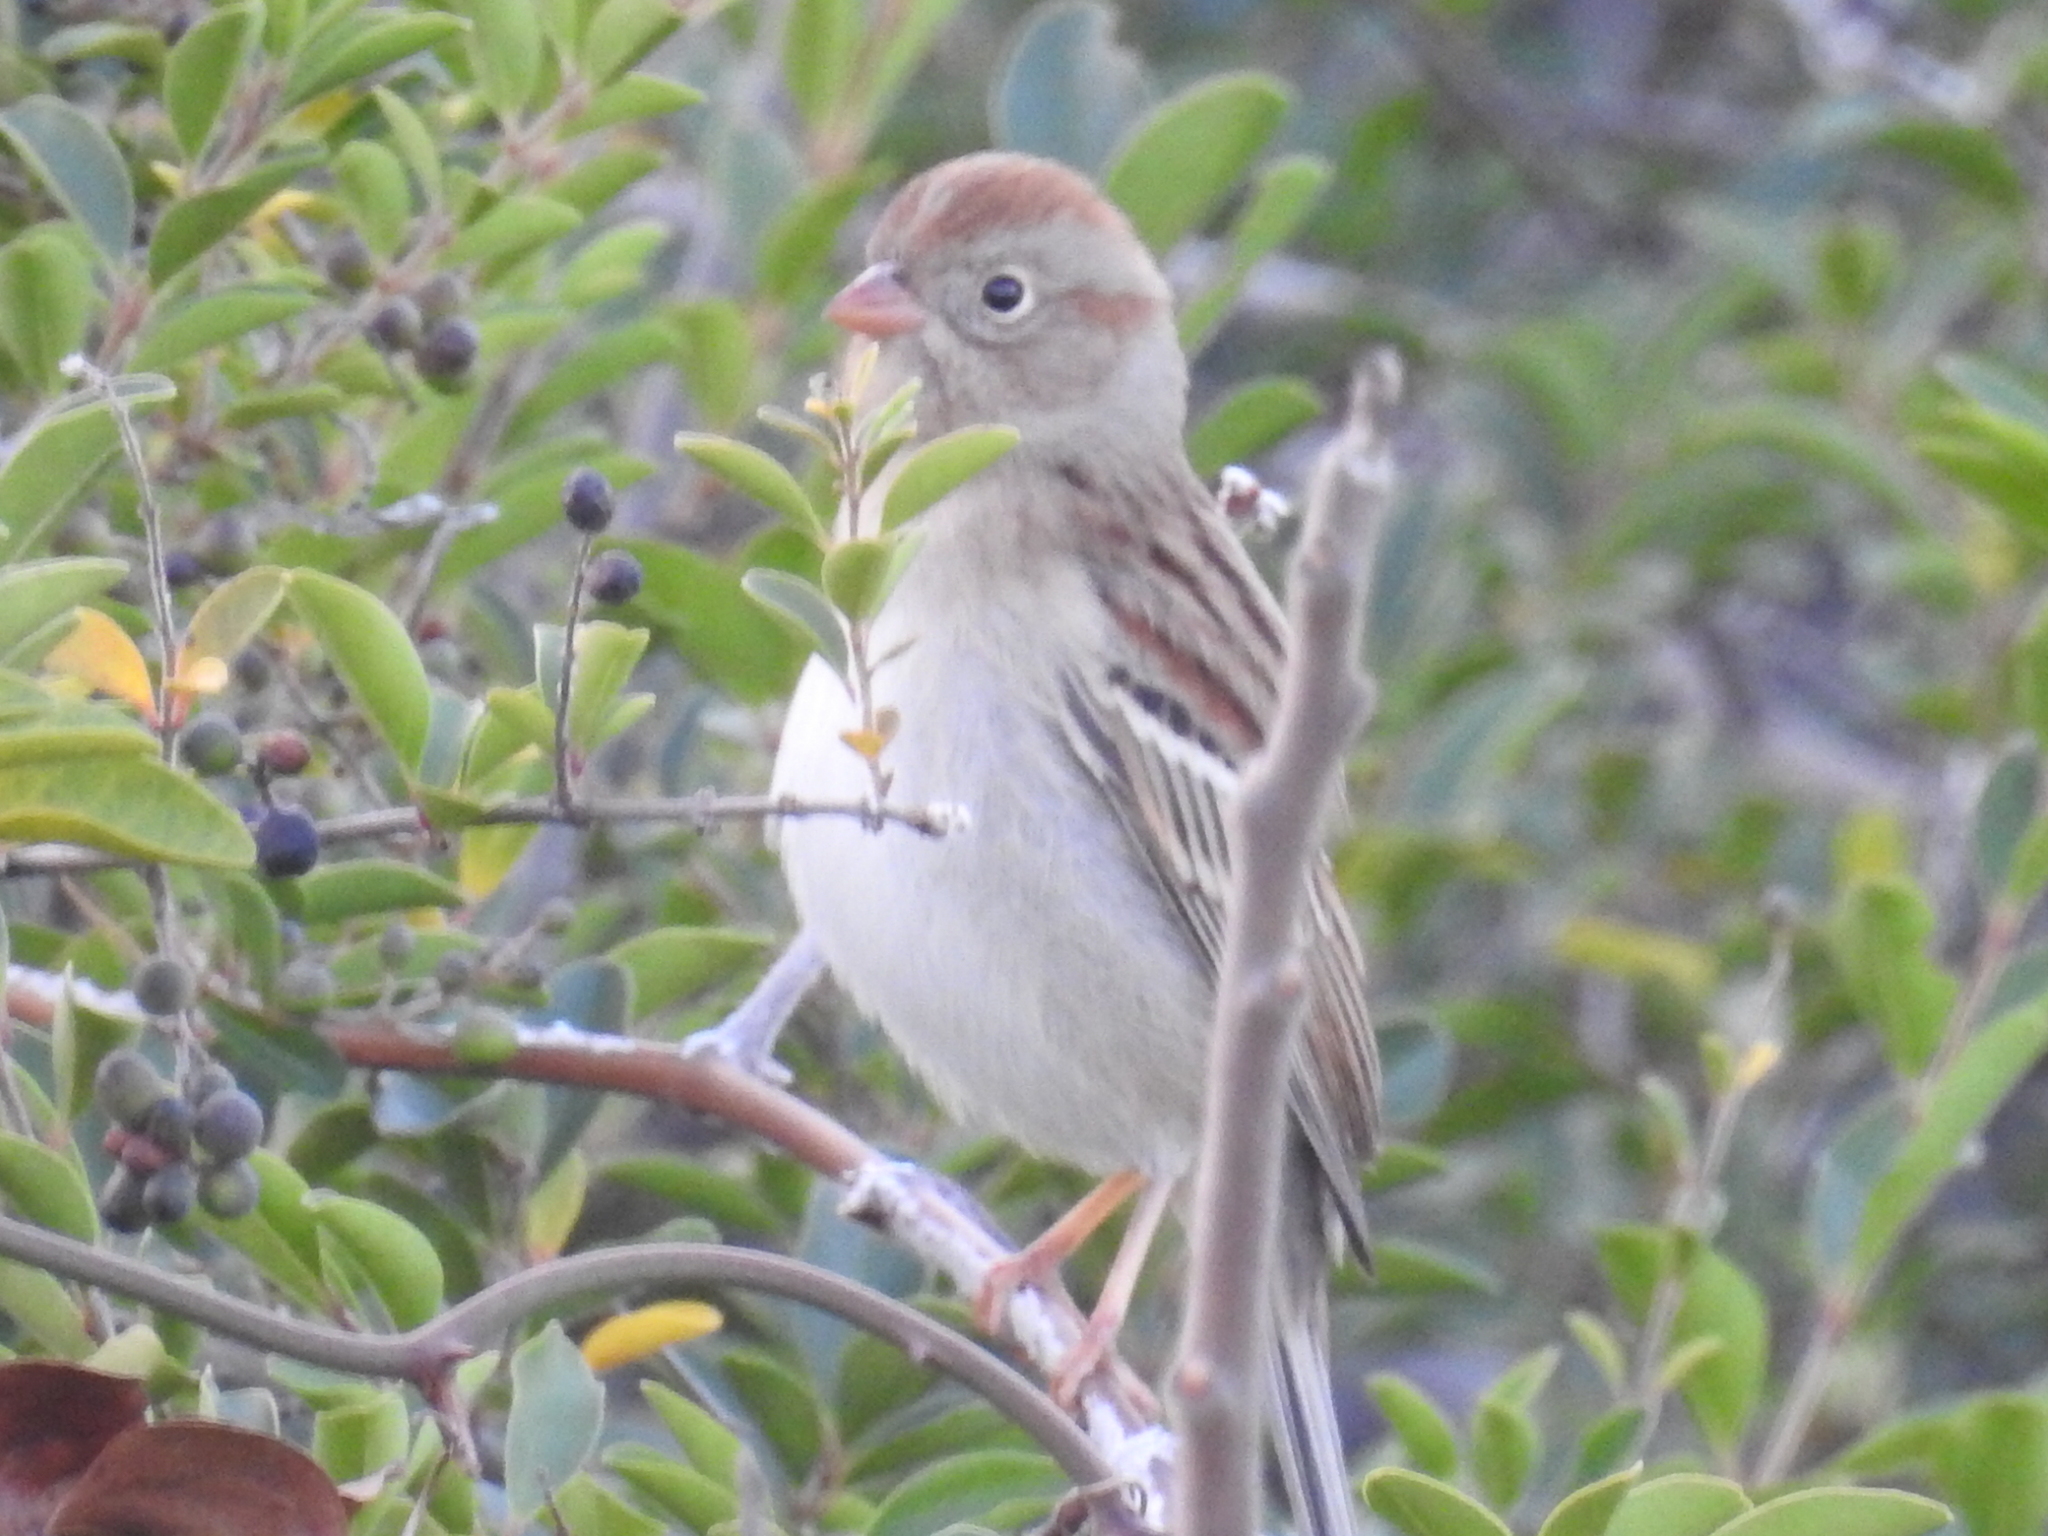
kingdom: Animalia
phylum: Chordata
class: Aves
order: Passeriformes
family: Passerellidae
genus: Spizella
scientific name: Spizella pusilla
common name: Field sparrow
